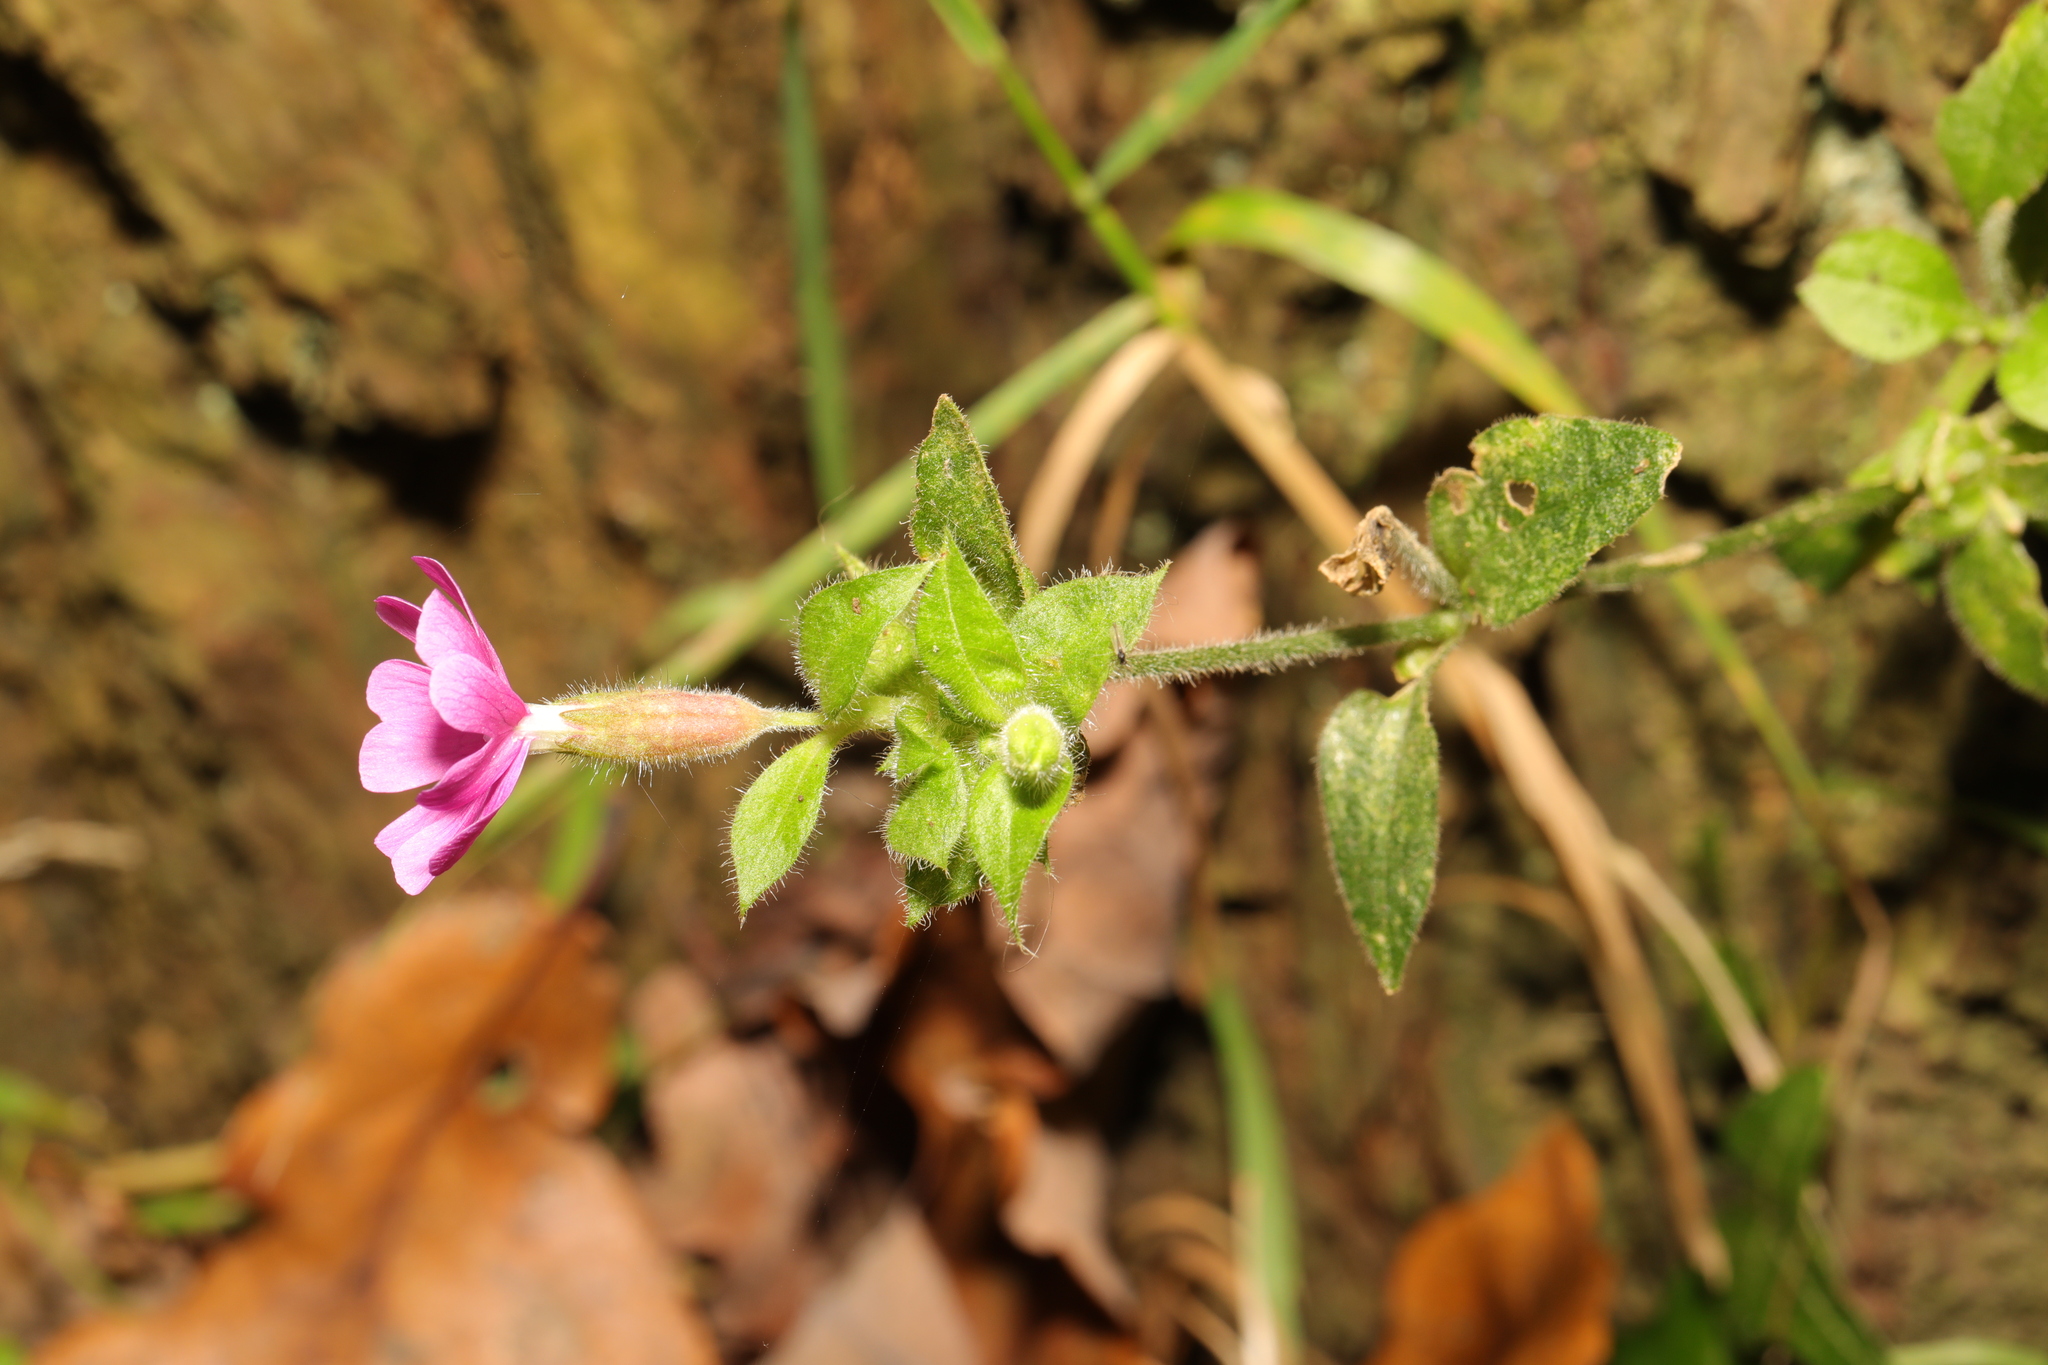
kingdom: Plantae
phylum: Tracheophyta
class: Magnoliopsida
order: Caryophyllales
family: Caryophyllaceae
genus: Silene
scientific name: Silene dioica
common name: Red campion
